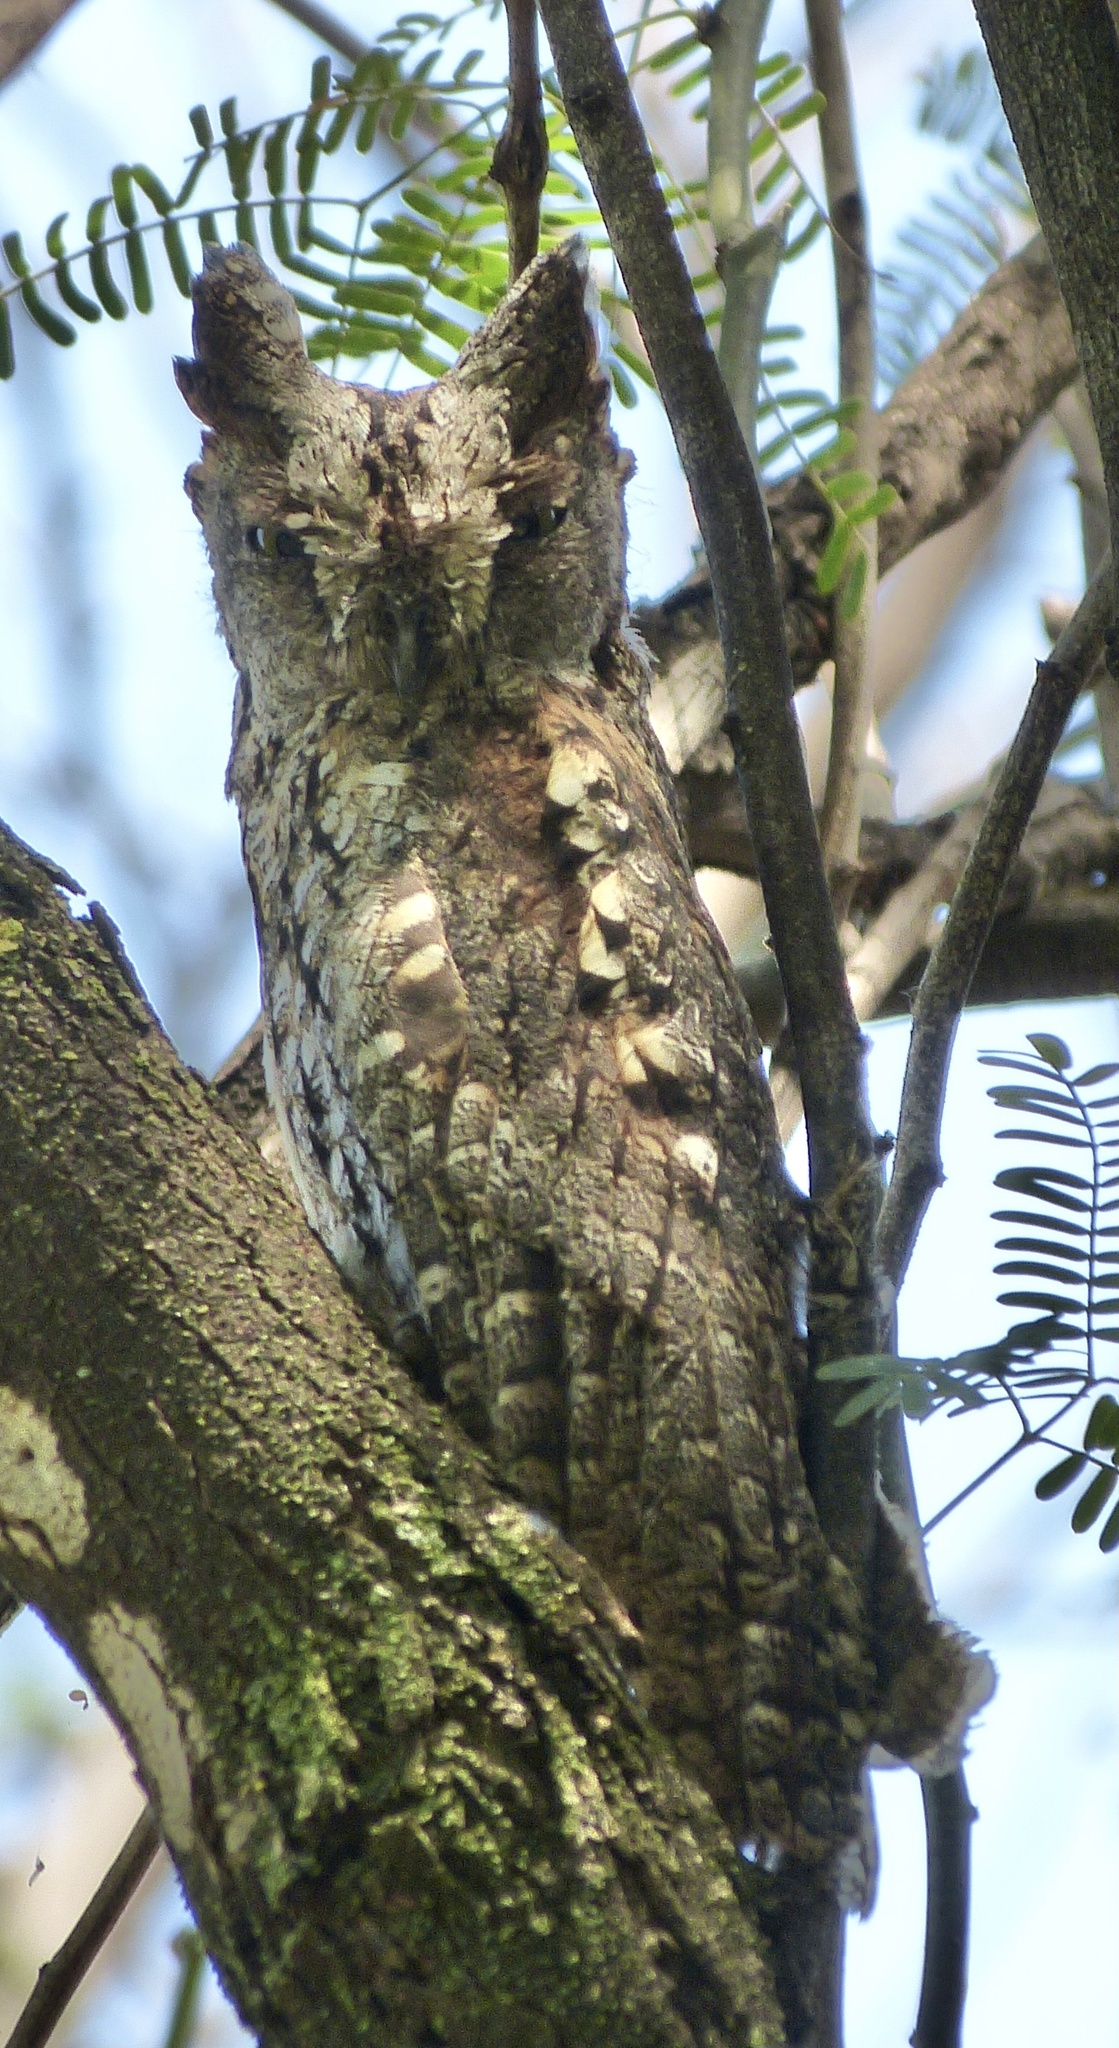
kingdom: Animalia
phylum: Chordata
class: Aves
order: Strigiformes
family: Strigidae
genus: Otus
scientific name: Otus senegalensis
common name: African scops owl
